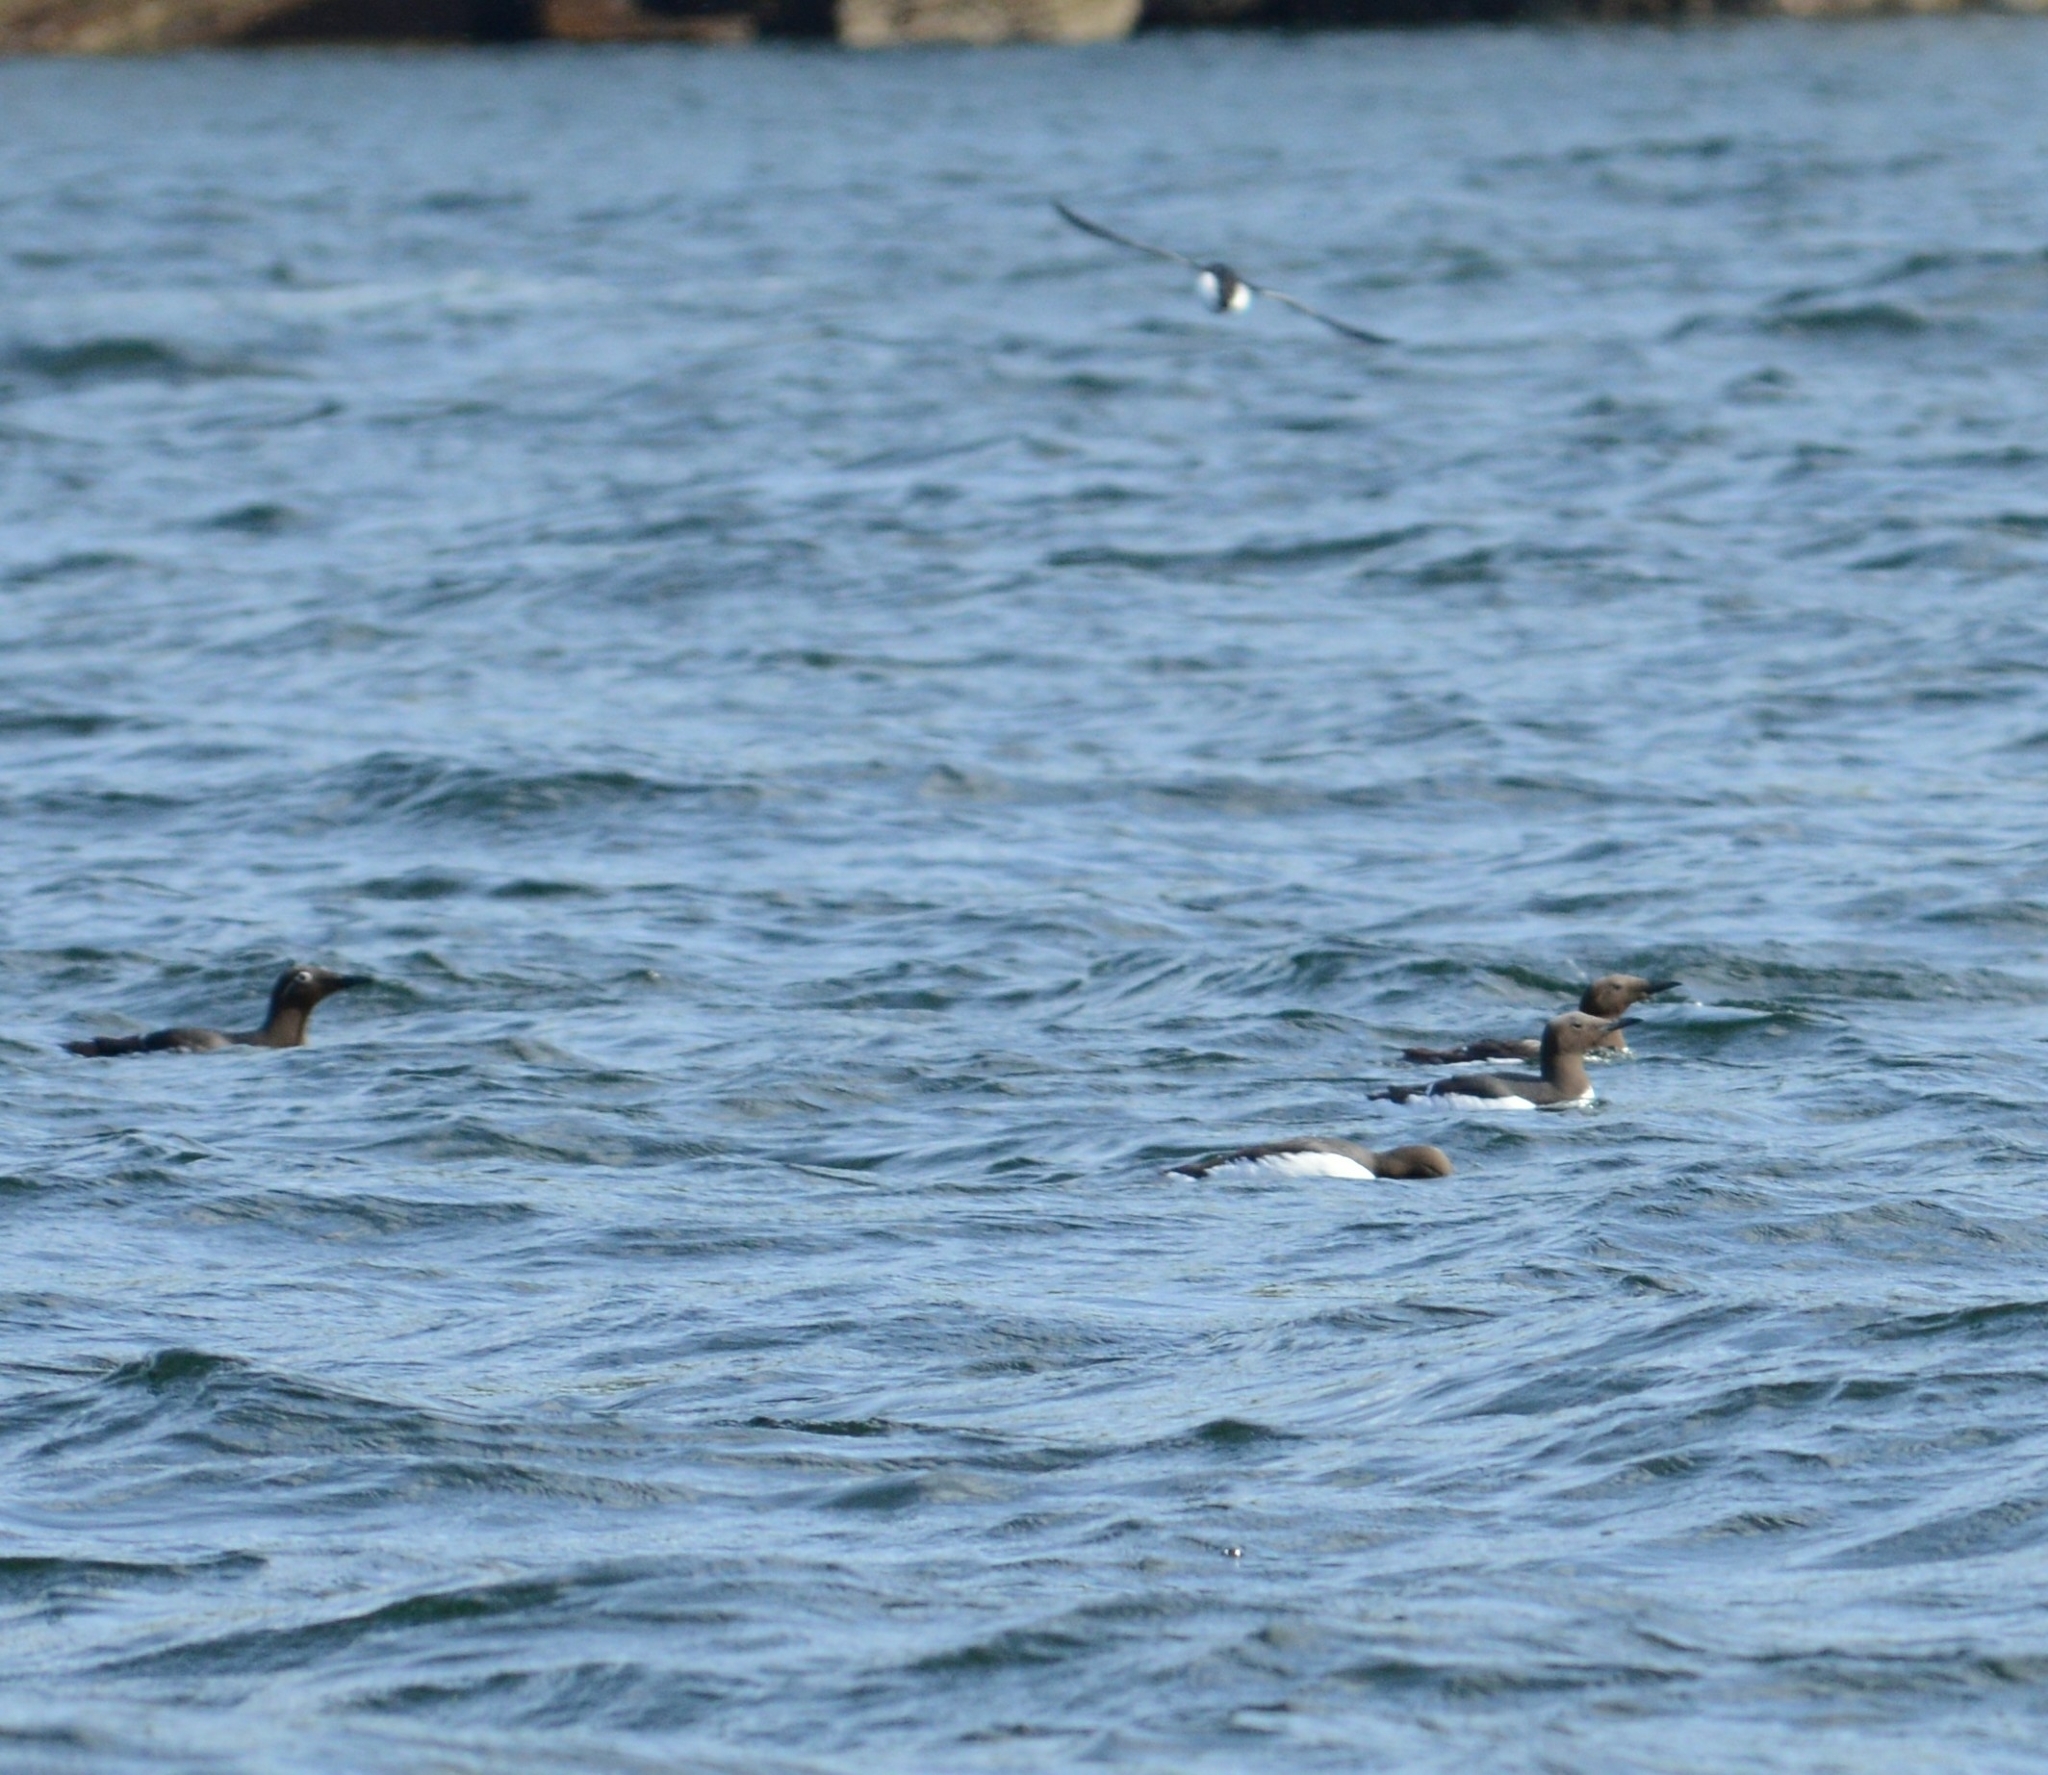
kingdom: Animalia
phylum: Chordata
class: Aves
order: Charadriiformes
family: Alcidae
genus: Uria
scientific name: Uria aalge
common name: Common murre
